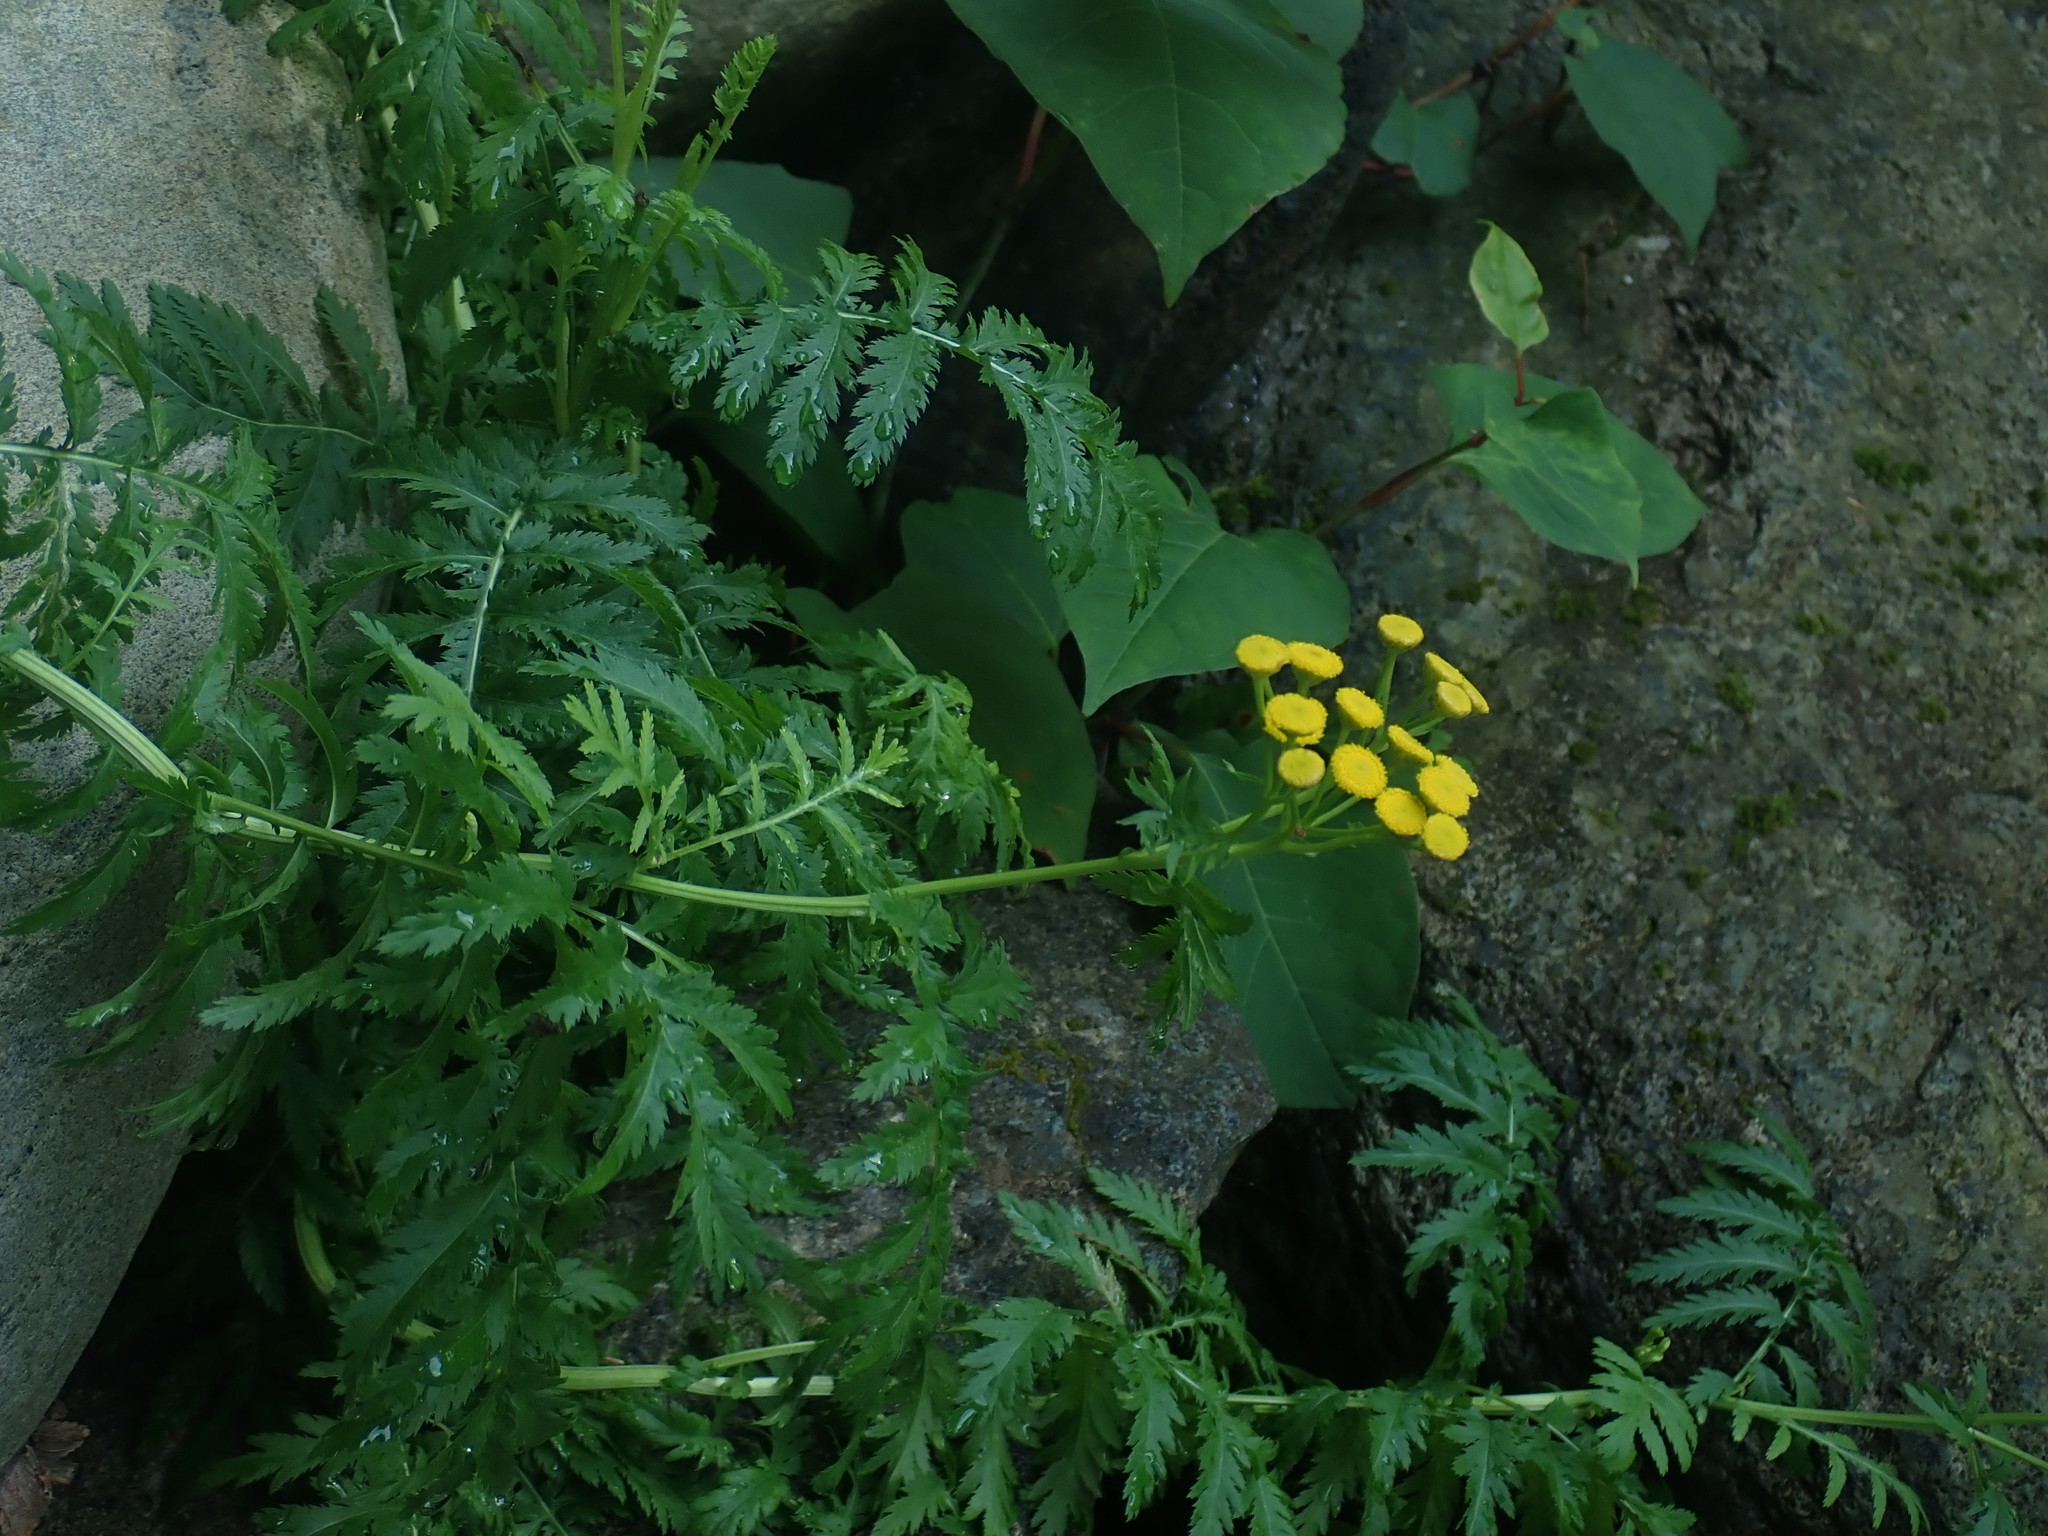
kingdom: Plantae
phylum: Tracheophyta
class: Magnoliopsida
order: Asterales
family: Asteraceae
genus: Tanacetum
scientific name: Tanacetum vulgare
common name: Common tansy
